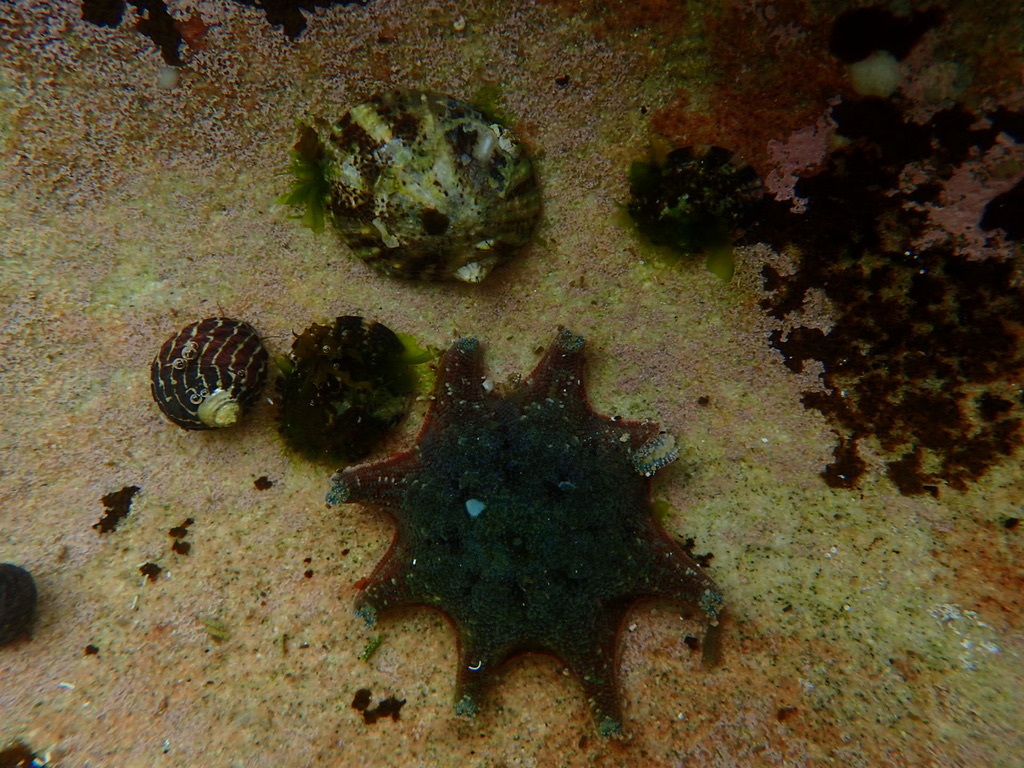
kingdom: Animalia
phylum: Echinodermata
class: Asteroidea
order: Valvatida
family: Asterinidae
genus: Meridiastra
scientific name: Meridiastra calcar
